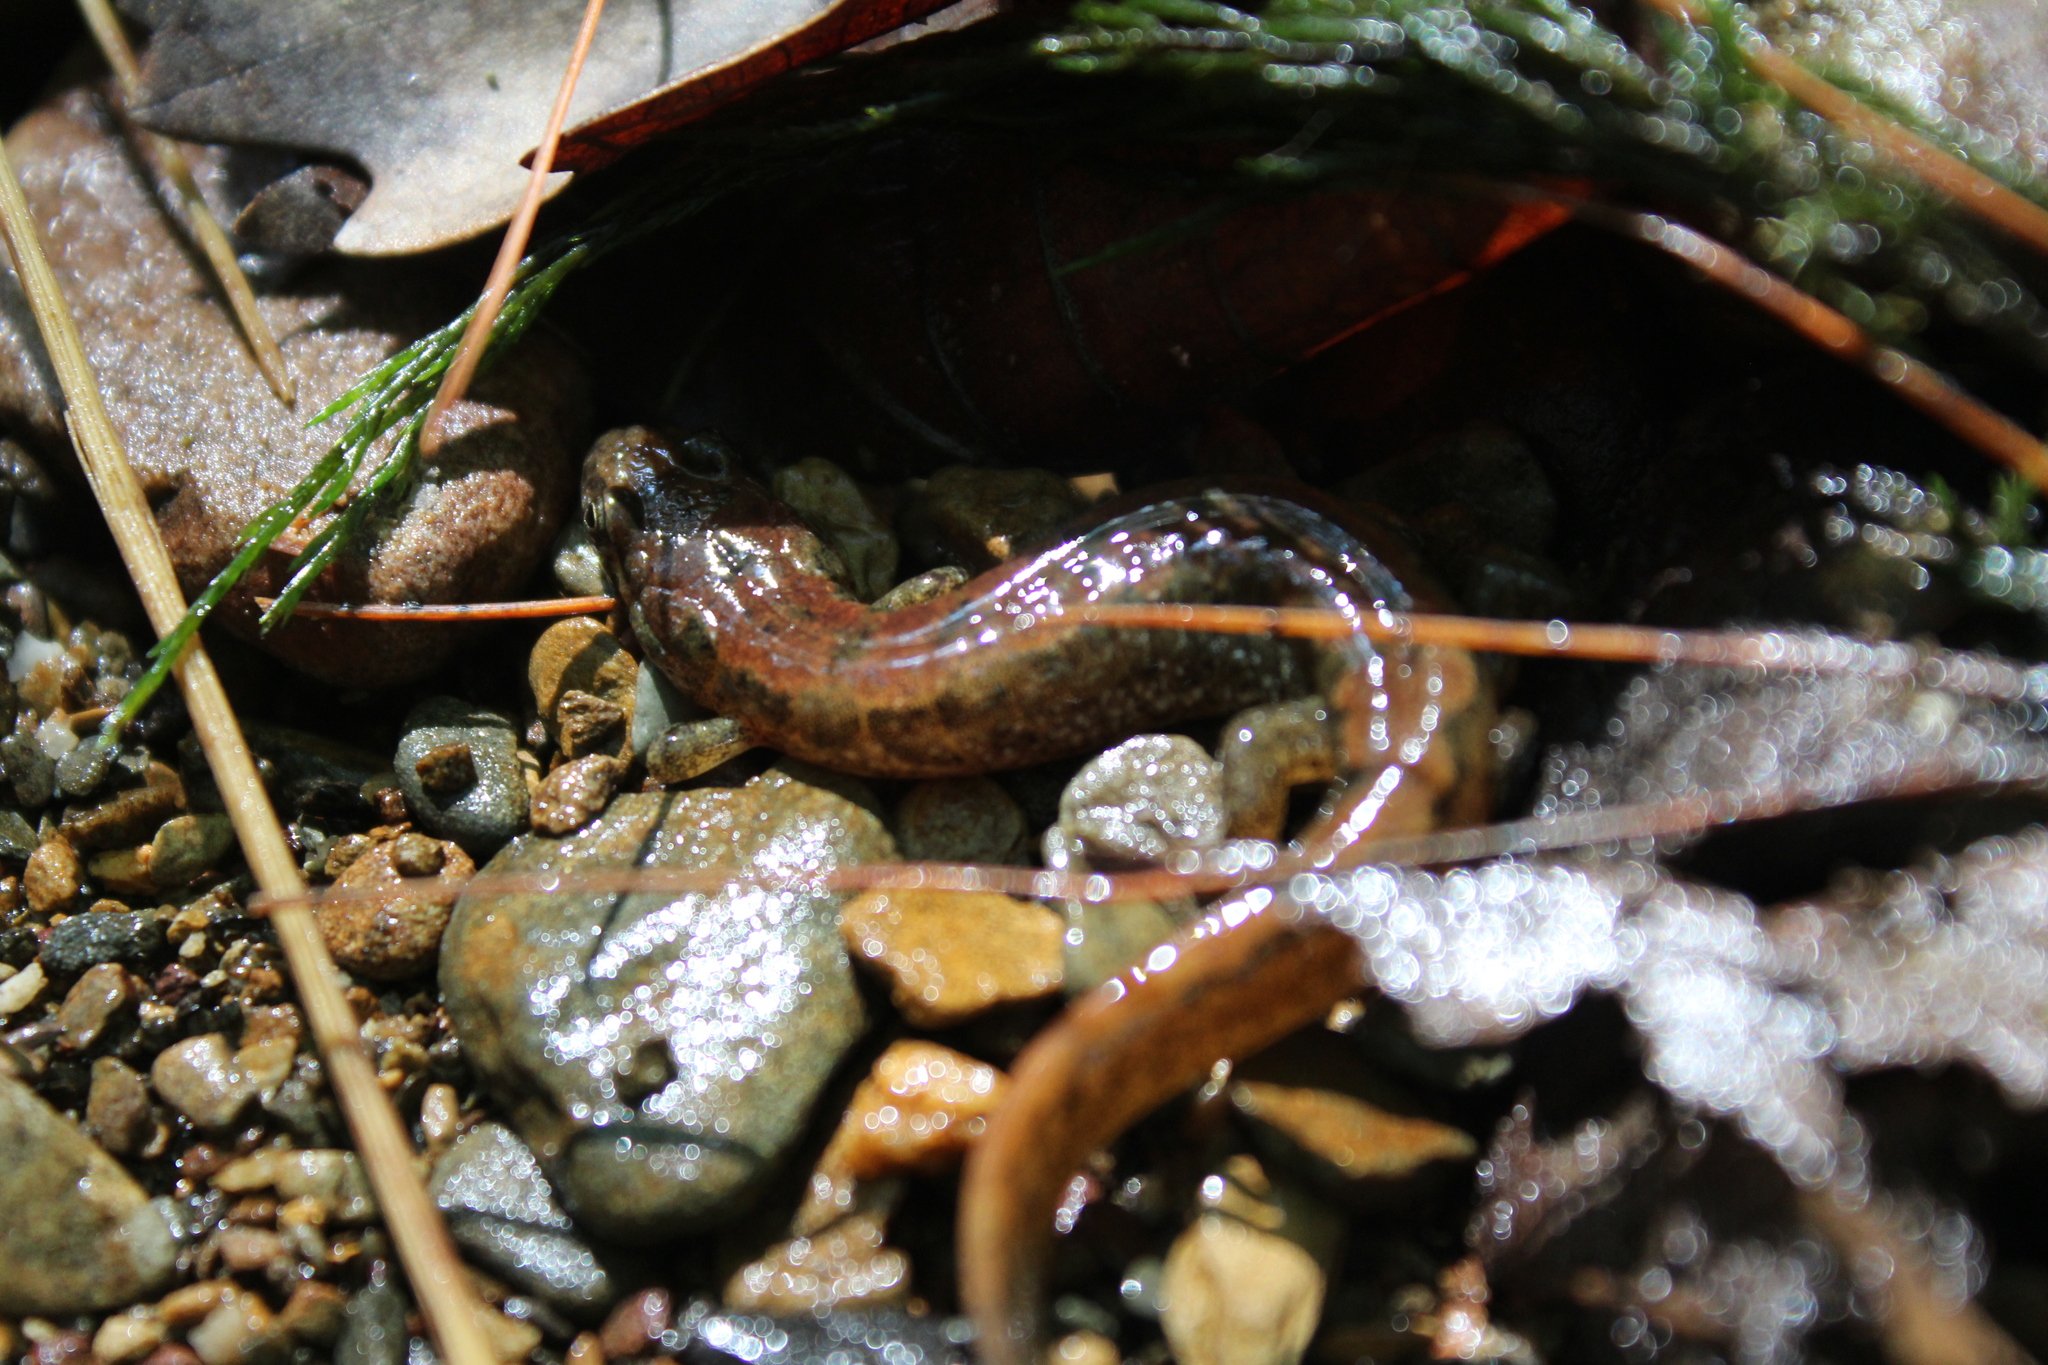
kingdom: Animalia
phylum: Chordata
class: Amphibia
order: Caudata
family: Plethodontidae
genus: Desmognathus
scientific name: Desmognathus fuscus
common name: Northern dusky salamander
